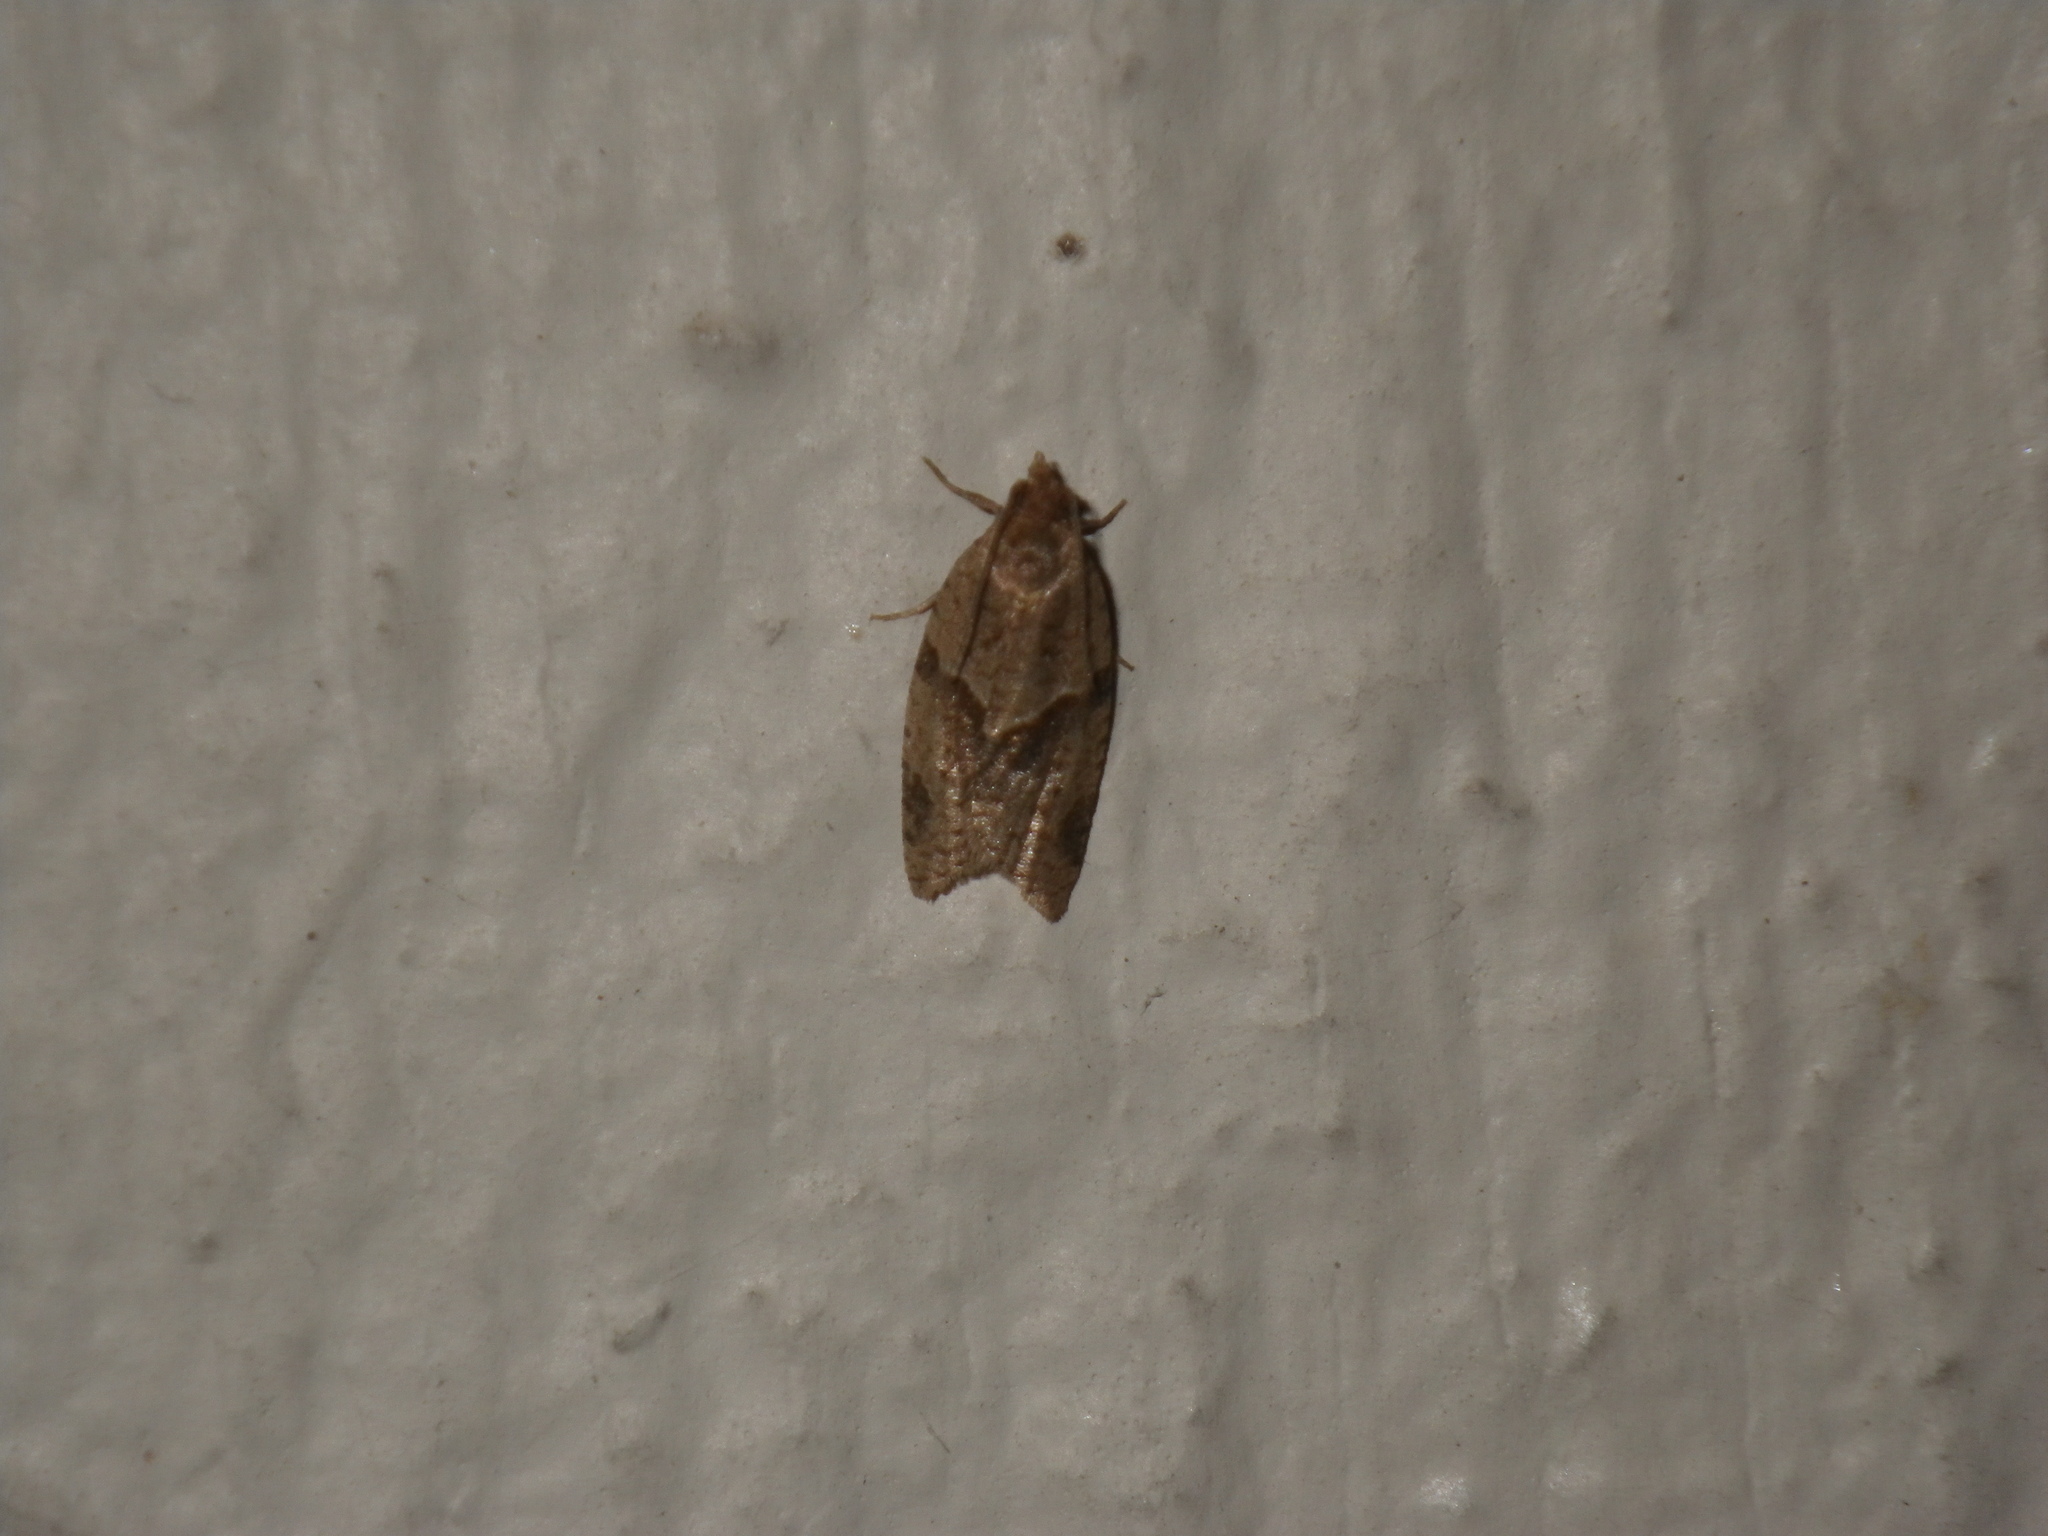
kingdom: Animalia
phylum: Arthropoda
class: Insecta
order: Lepidoptera
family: Tortricidae
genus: Clepsis
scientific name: Clepsis peritana
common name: Garden tortrix
